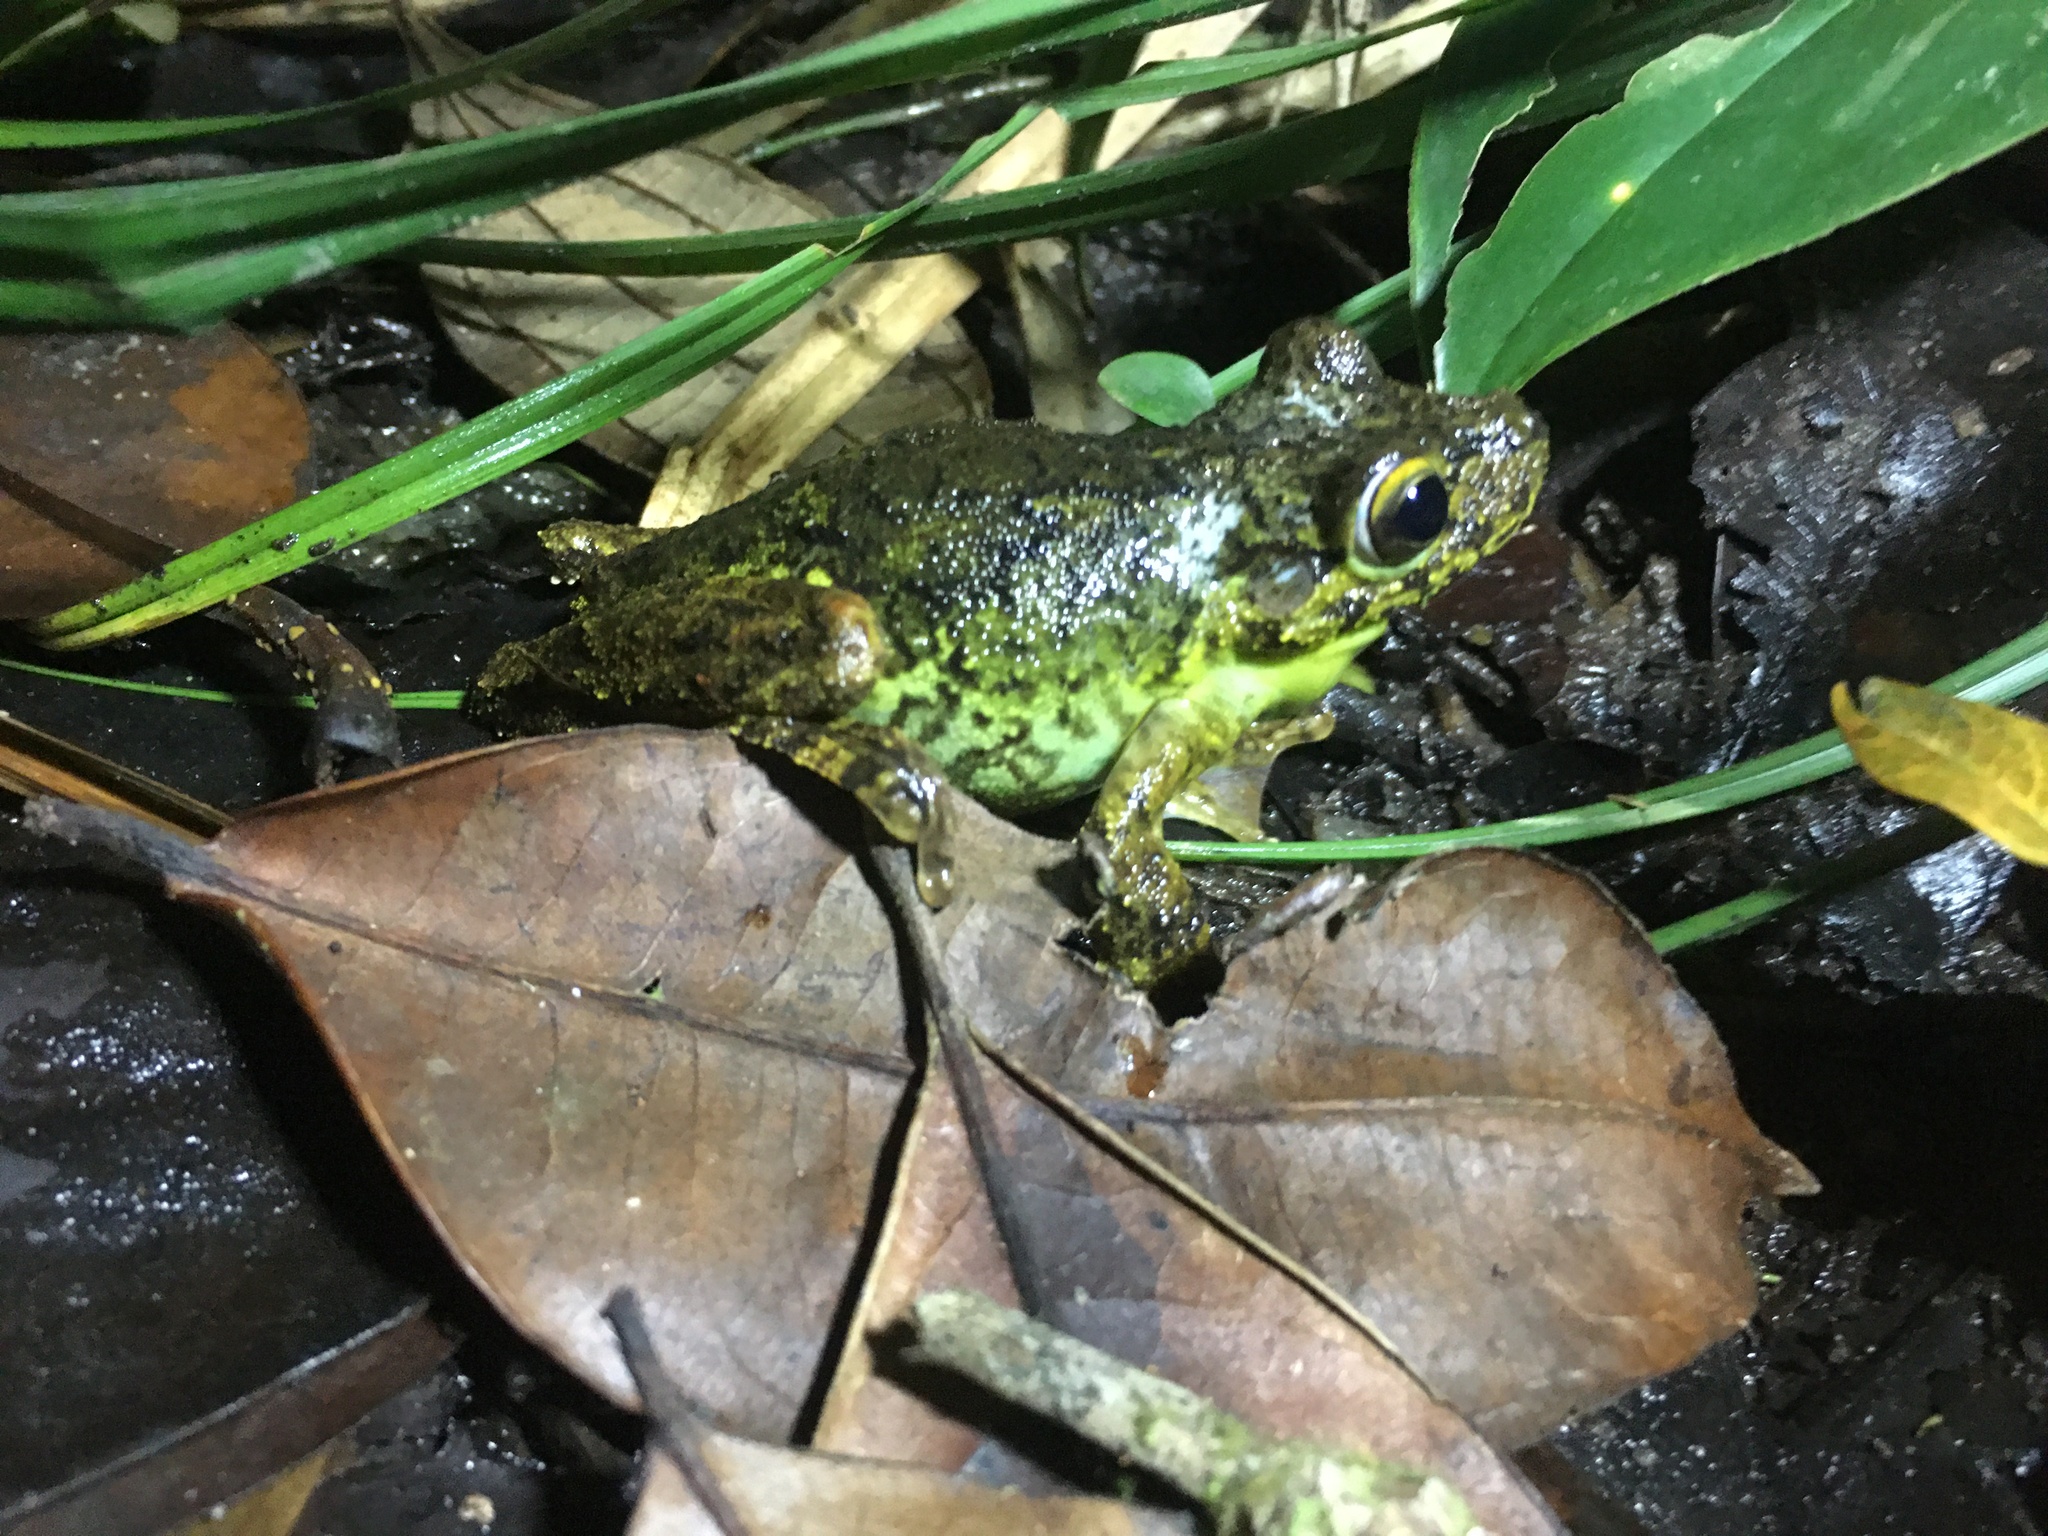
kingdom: Animalia
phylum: Chordata
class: Amphibia
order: Anura
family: Hylidae
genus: Boana
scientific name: Boana exastis
